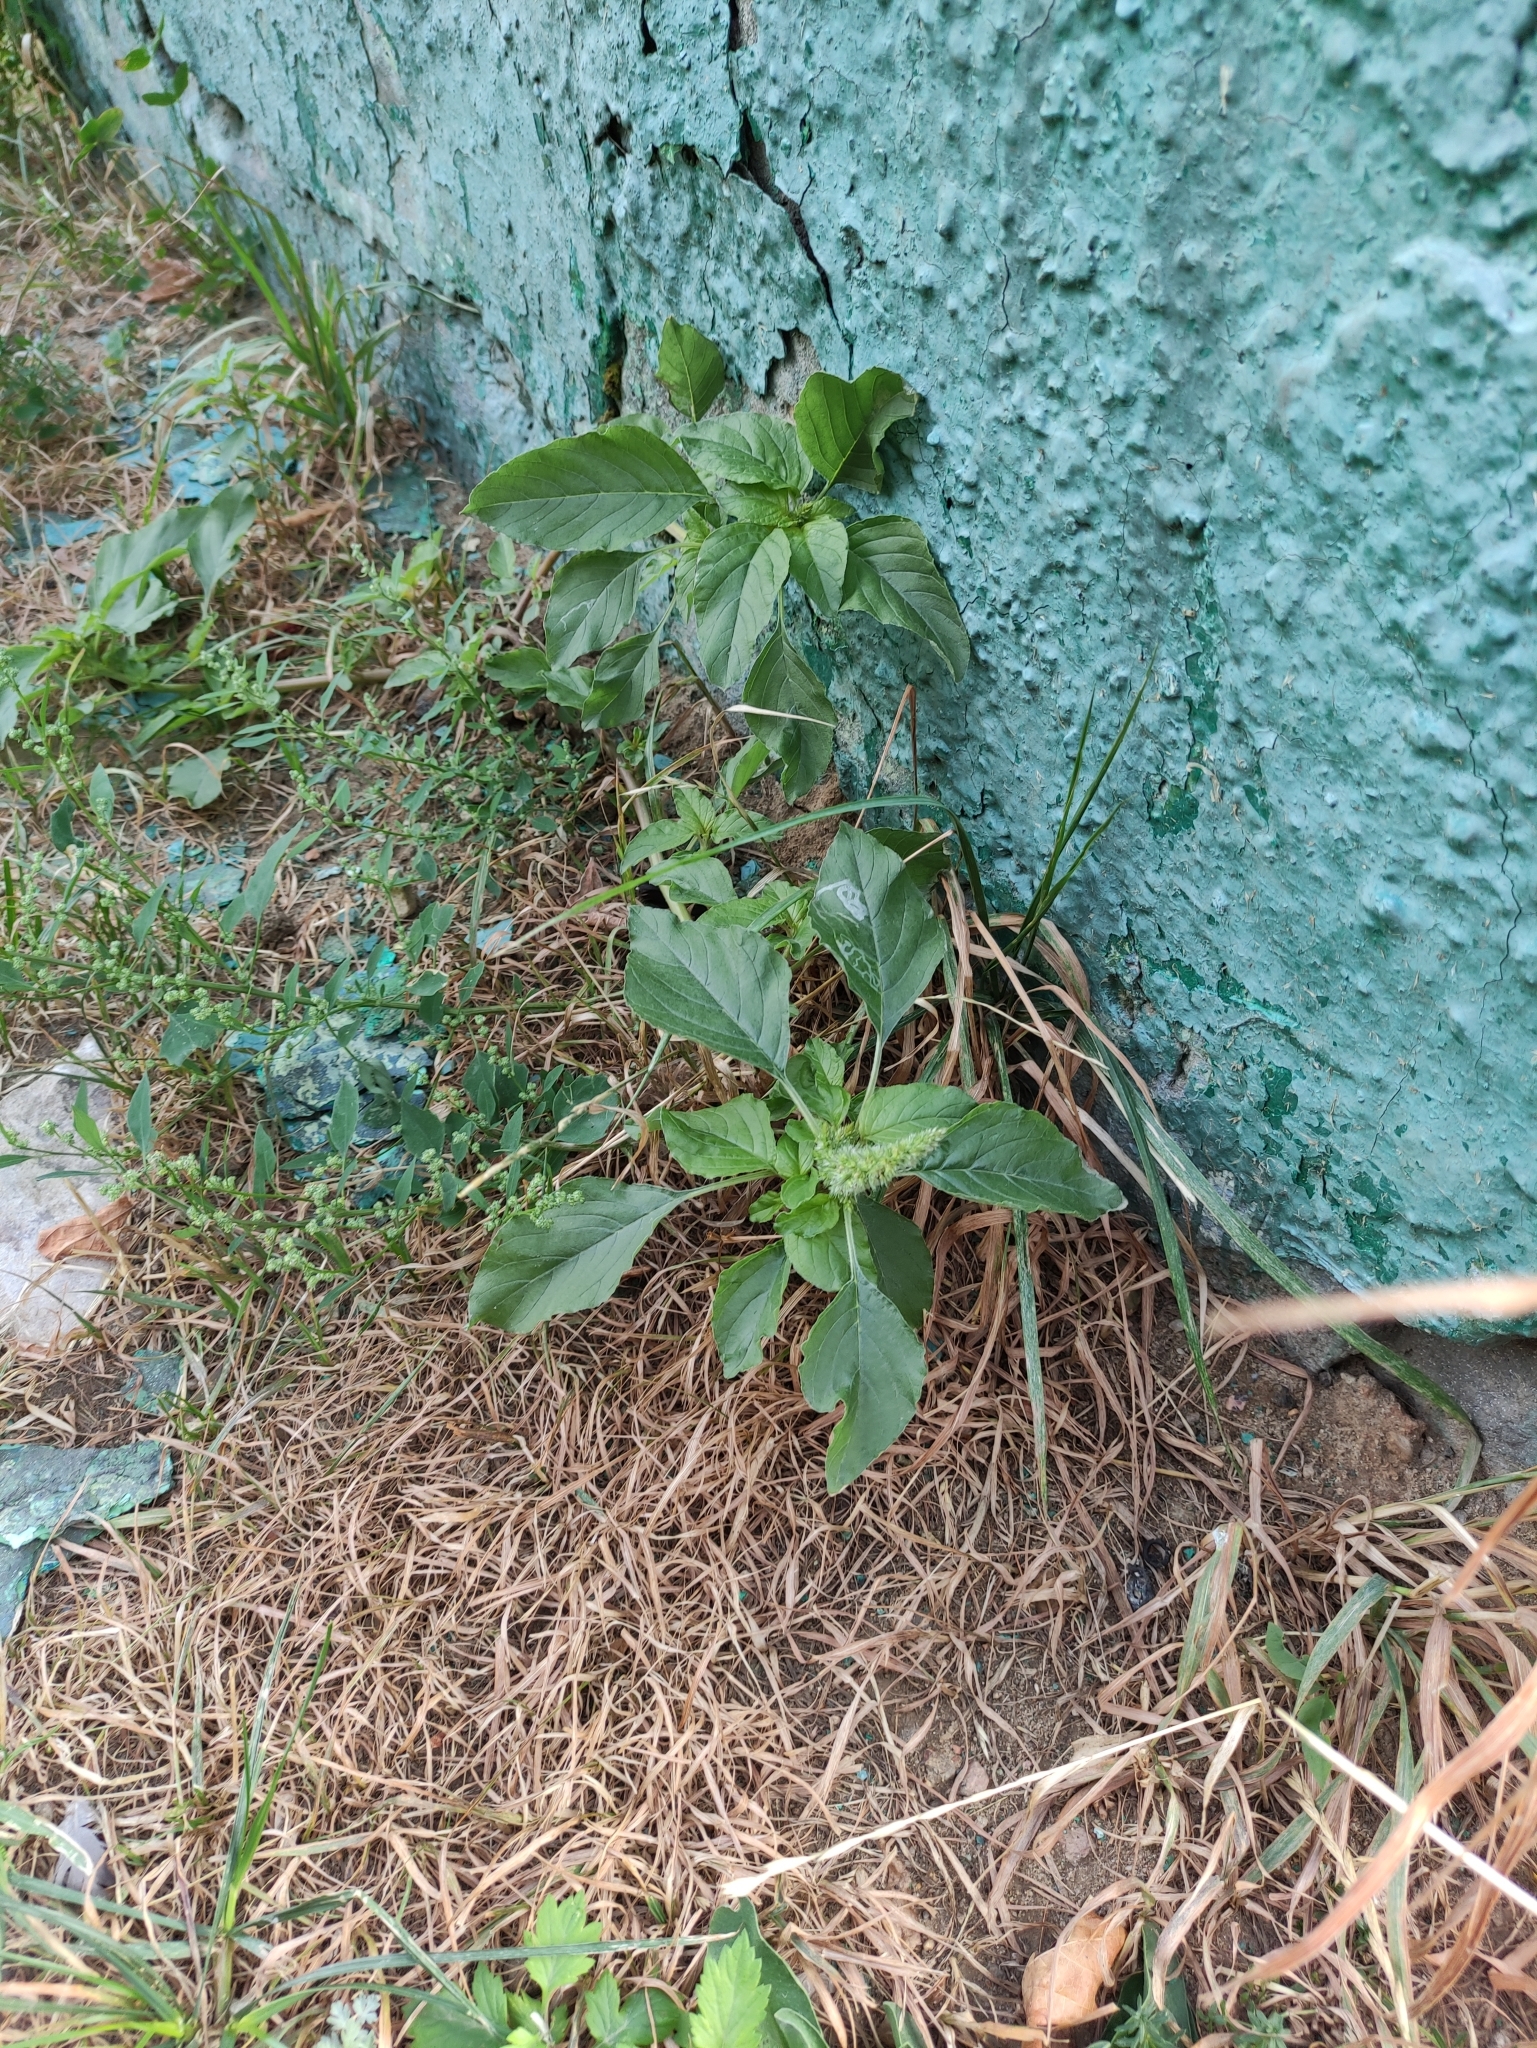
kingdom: Plantae
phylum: Tracheophyta
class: Magnoliopsida
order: Caryophyllales
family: Amaranthaceae
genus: Amaranthus
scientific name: Amaranthus retroflexus
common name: Redroot amaranth
